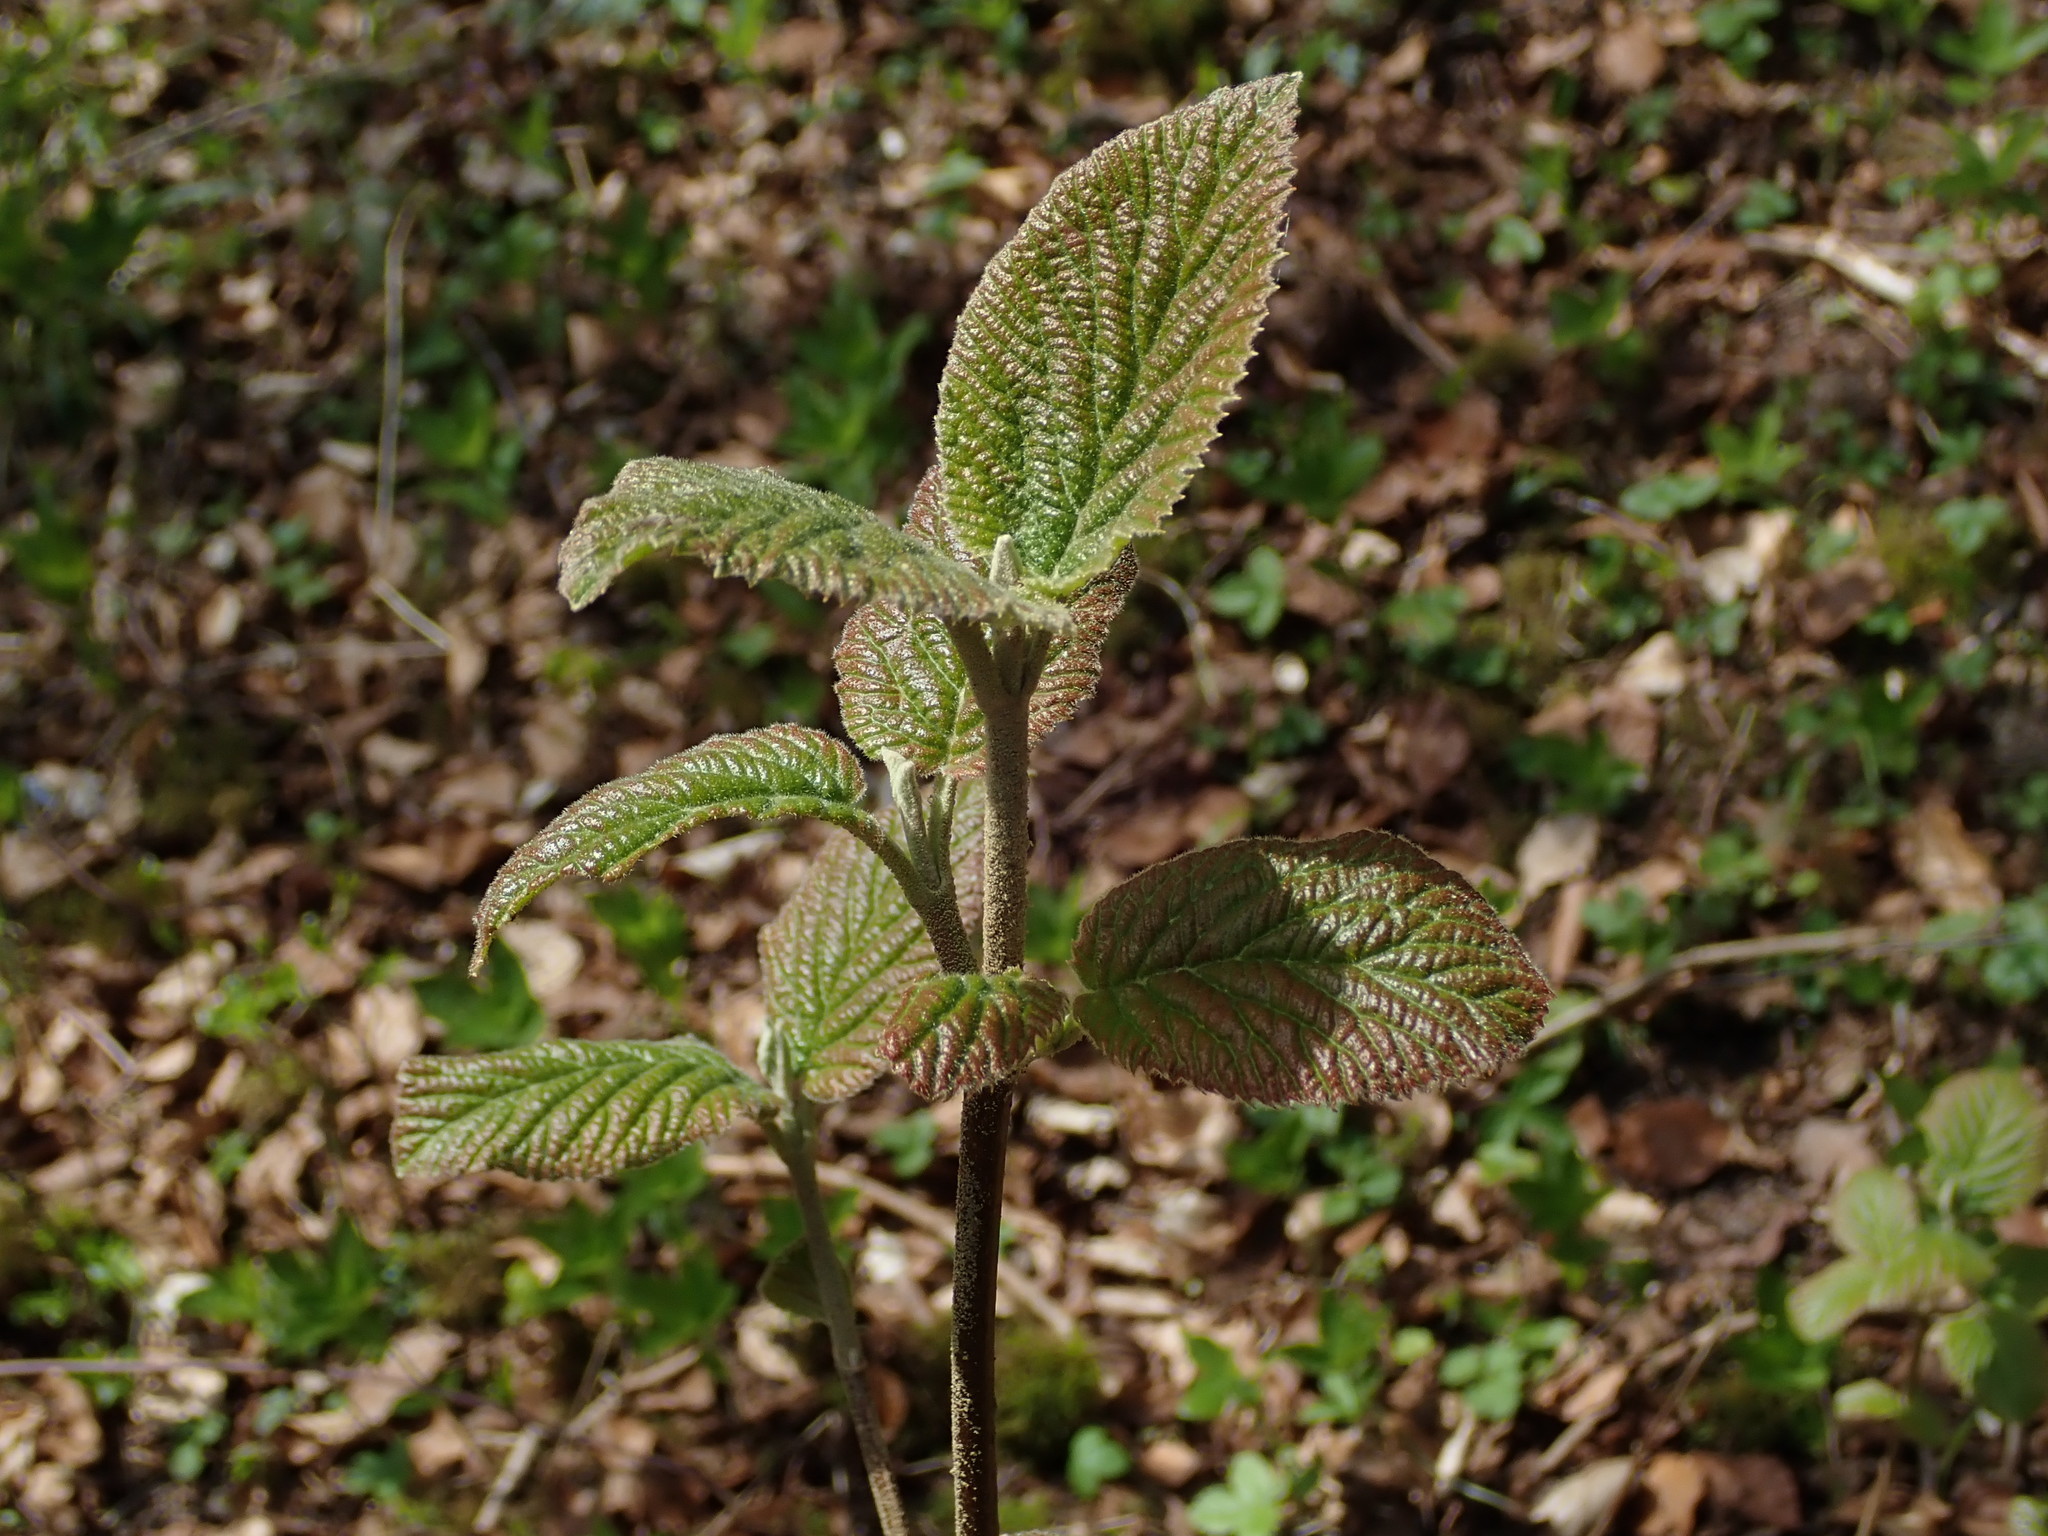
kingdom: Plantae
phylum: Tracheophyta
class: Magnoliopsida
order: Dipsacales
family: Viburnaceae
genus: Viburnum
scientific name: Viburnum lantana
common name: Wayfaring tree
